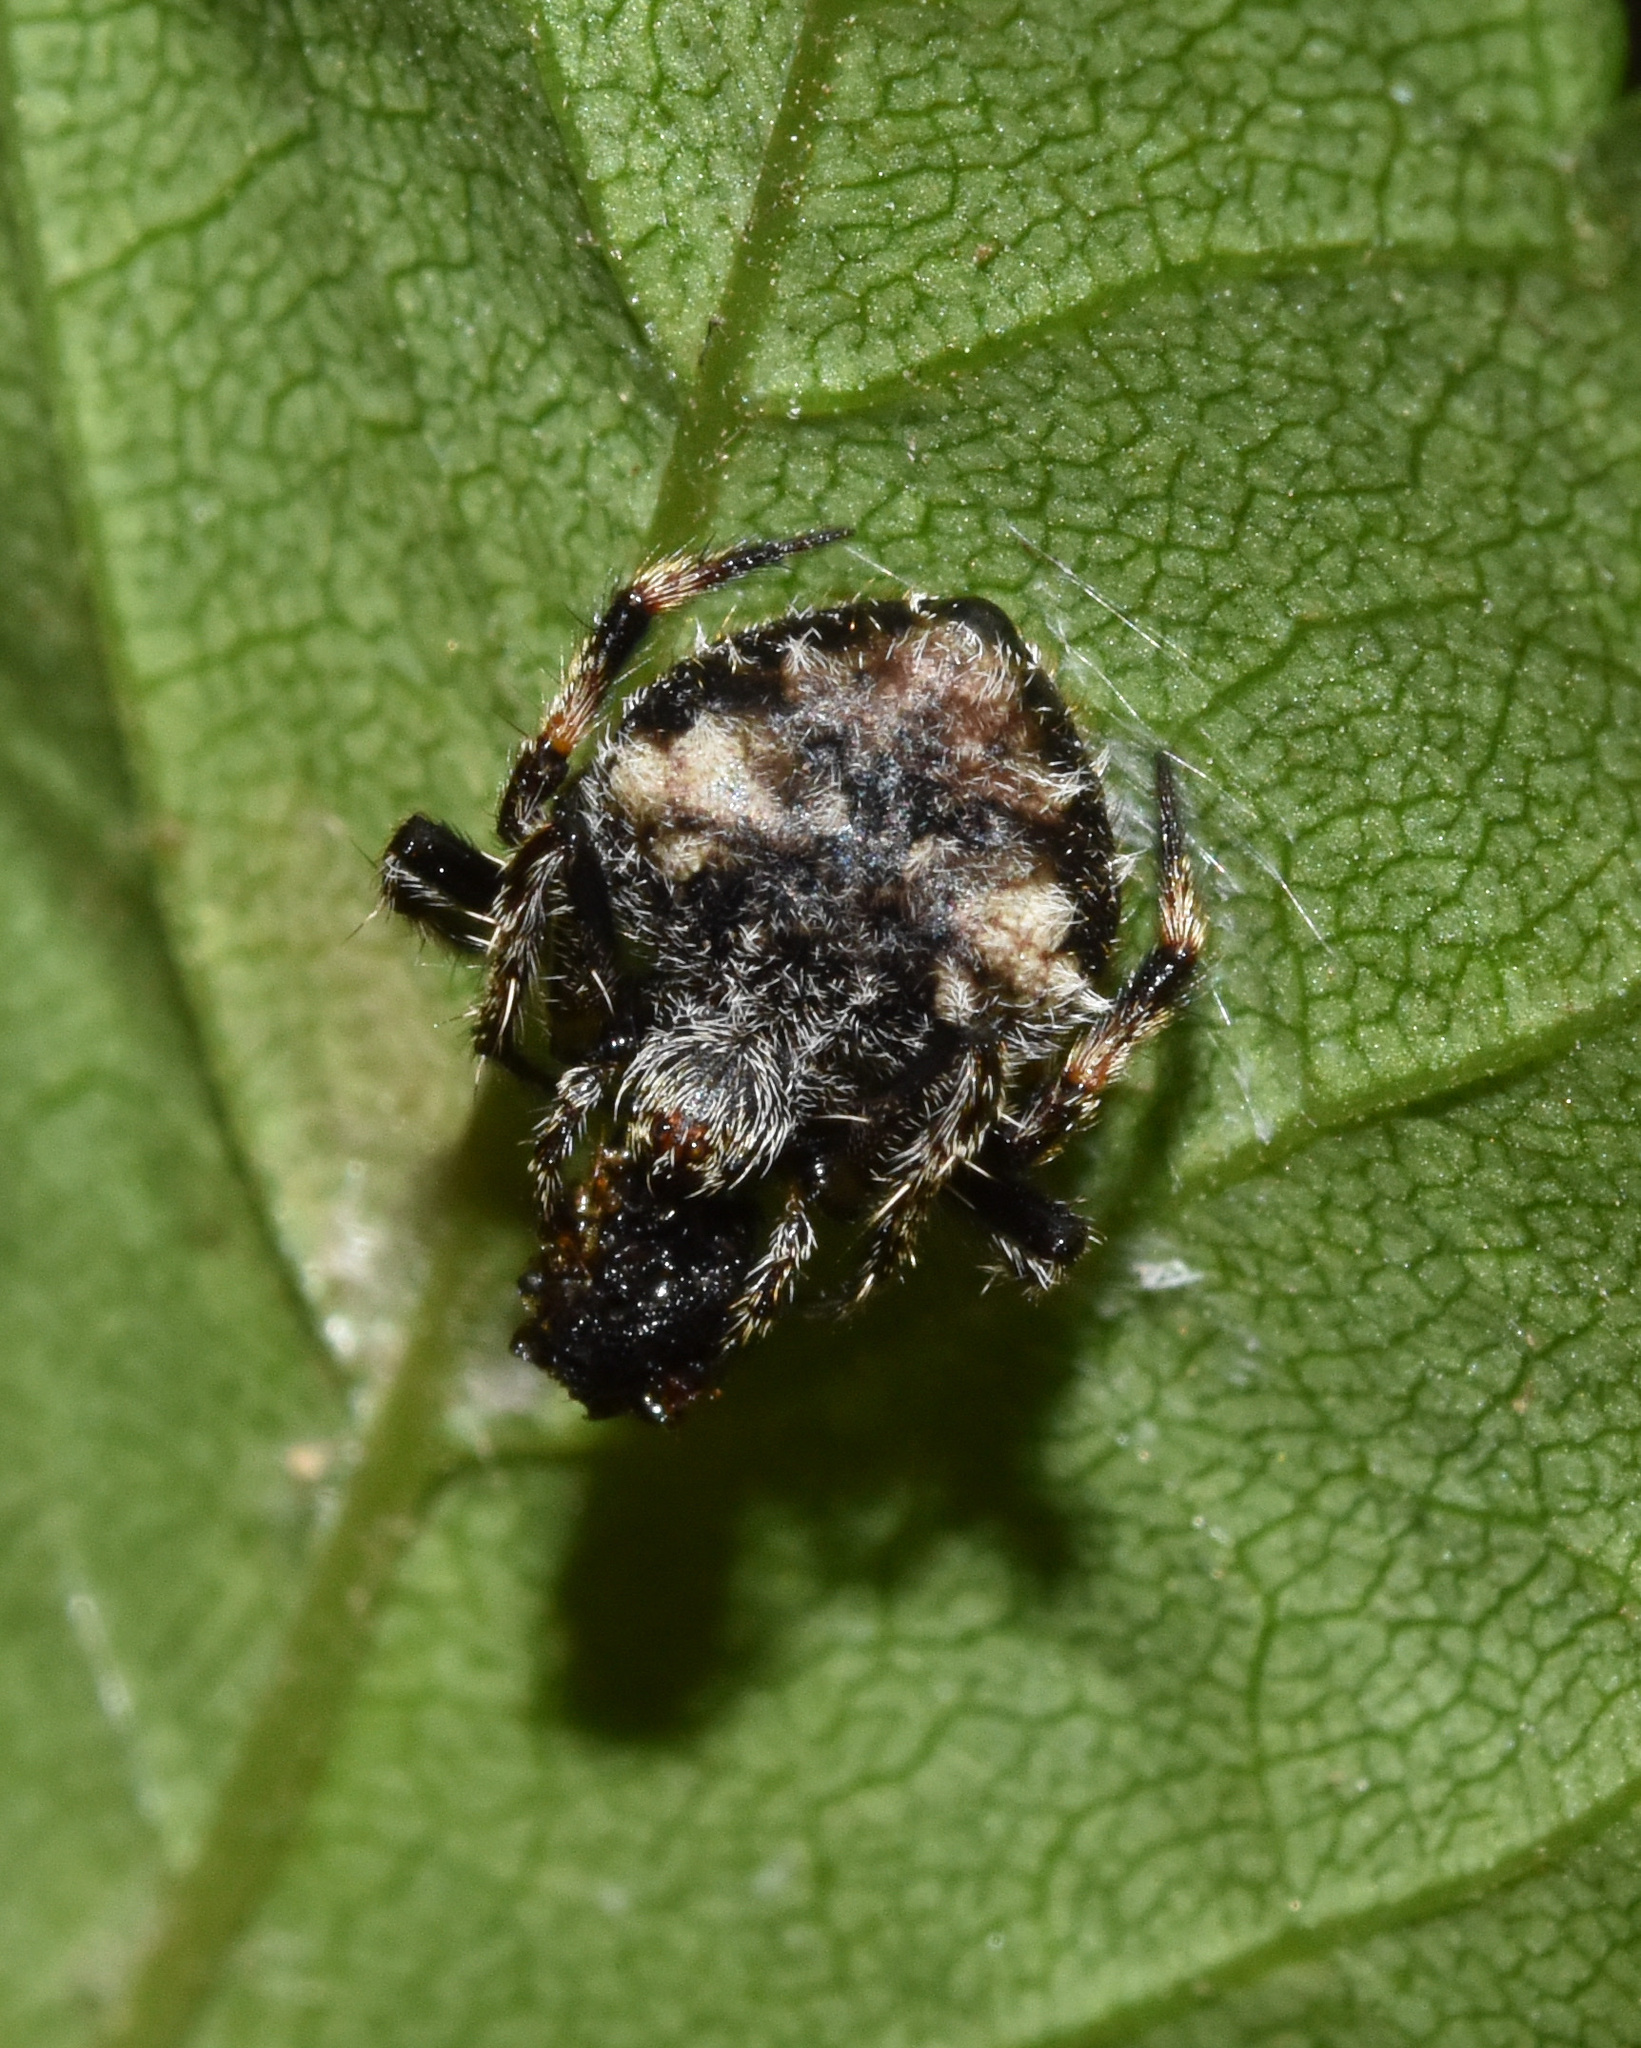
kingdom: Animalia
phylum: Arthropoda
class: Arachnida
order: Araneae
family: Araneidae
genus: Eriovixia
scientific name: Eriovixia excelsa
